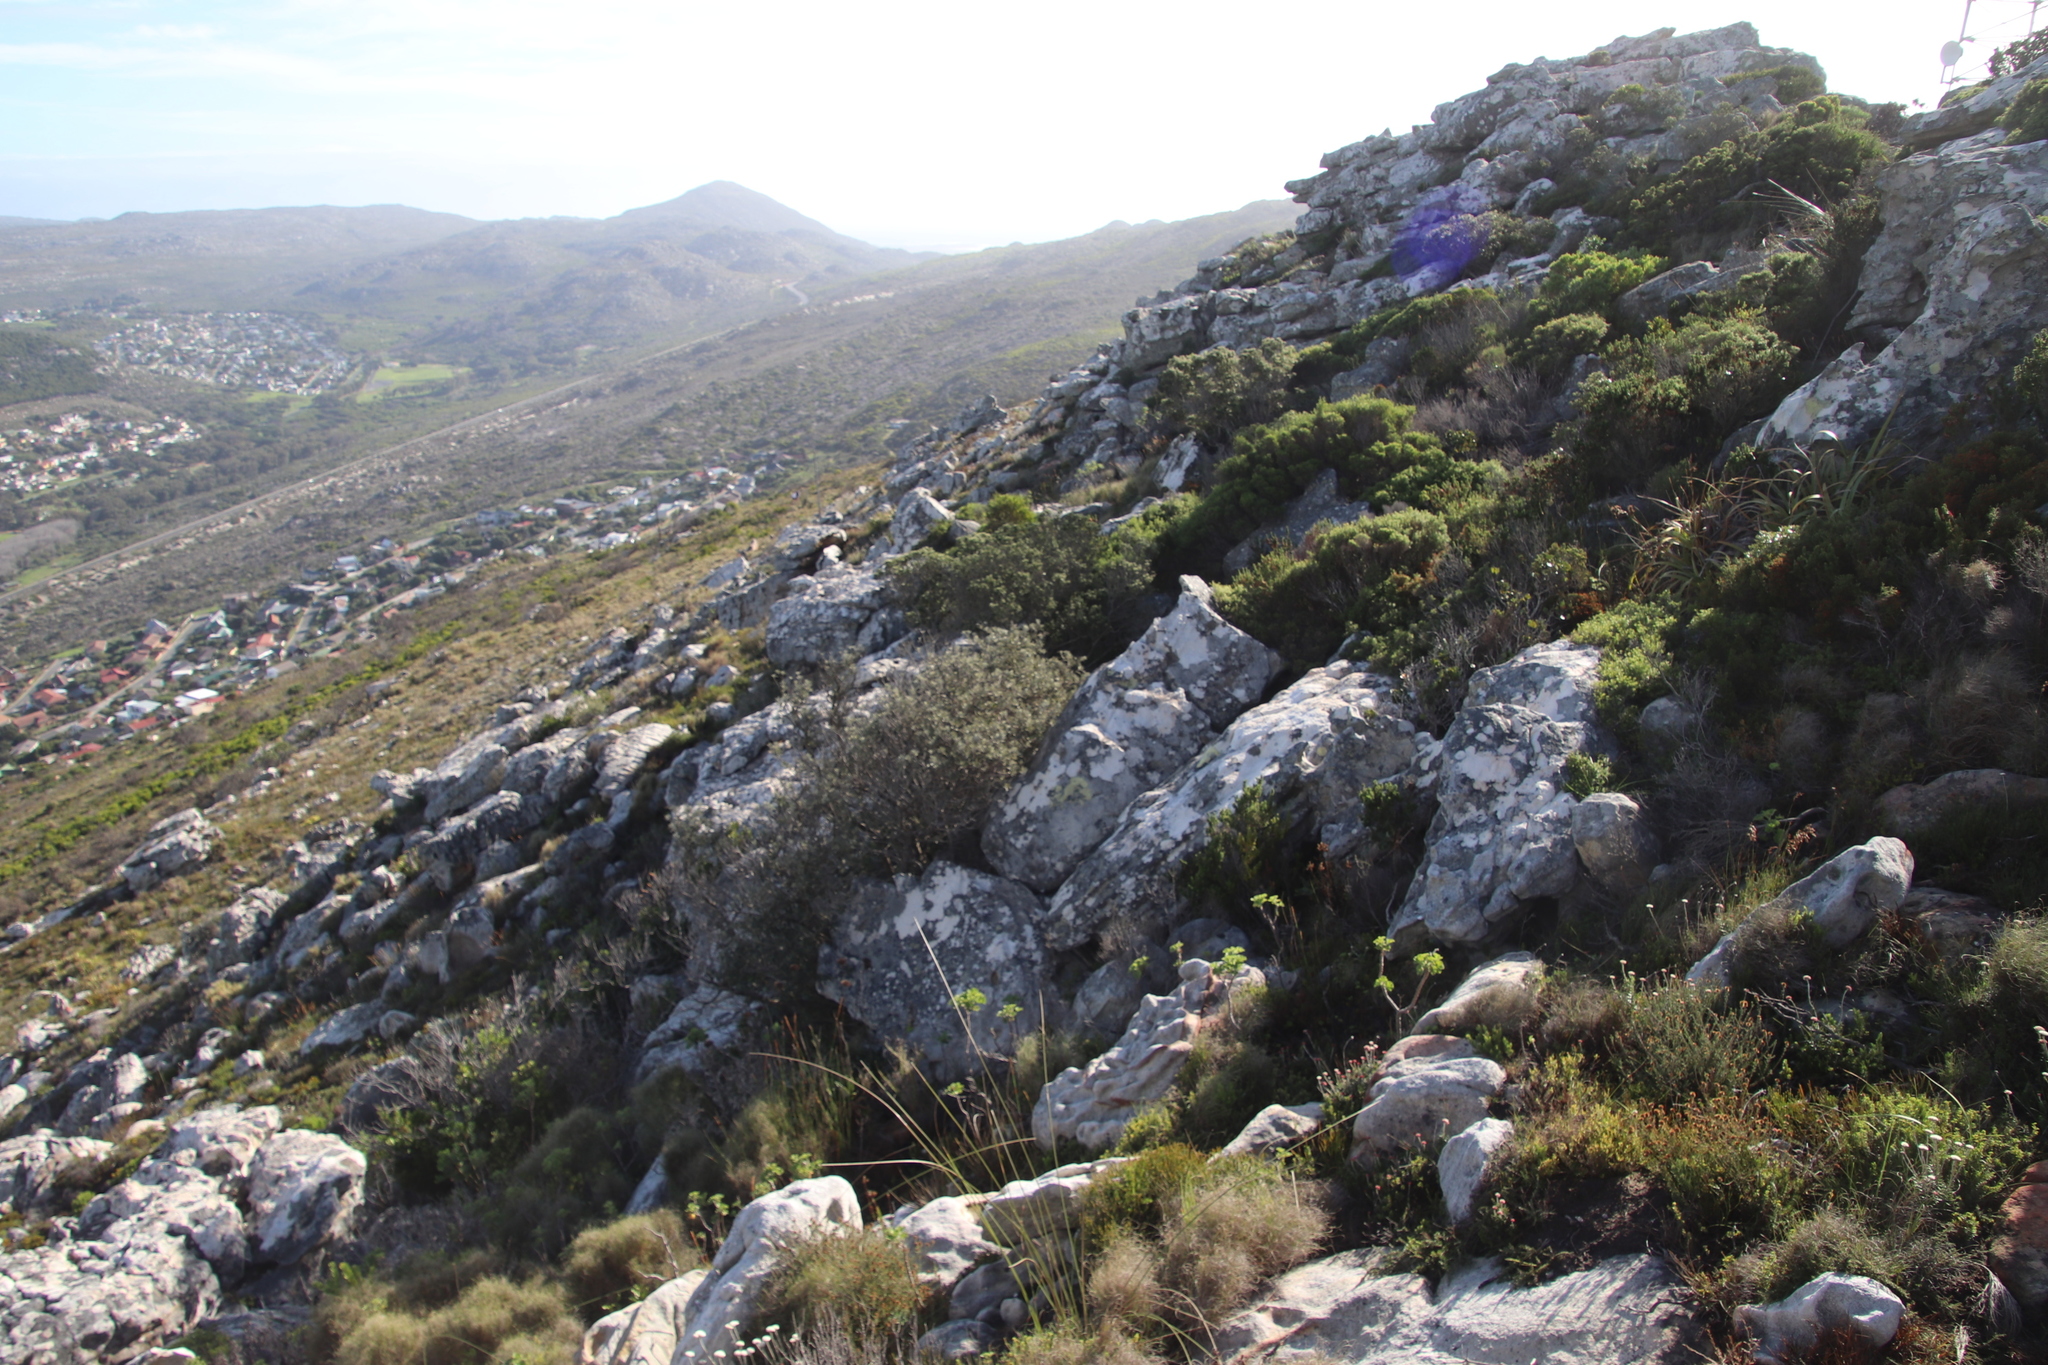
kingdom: Plantae
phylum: Tracheophyta
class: Magnoliopsida
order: Asterales
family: Asteraceae
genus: Tarchonanthus
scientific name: Tarchonanthus littoralis
